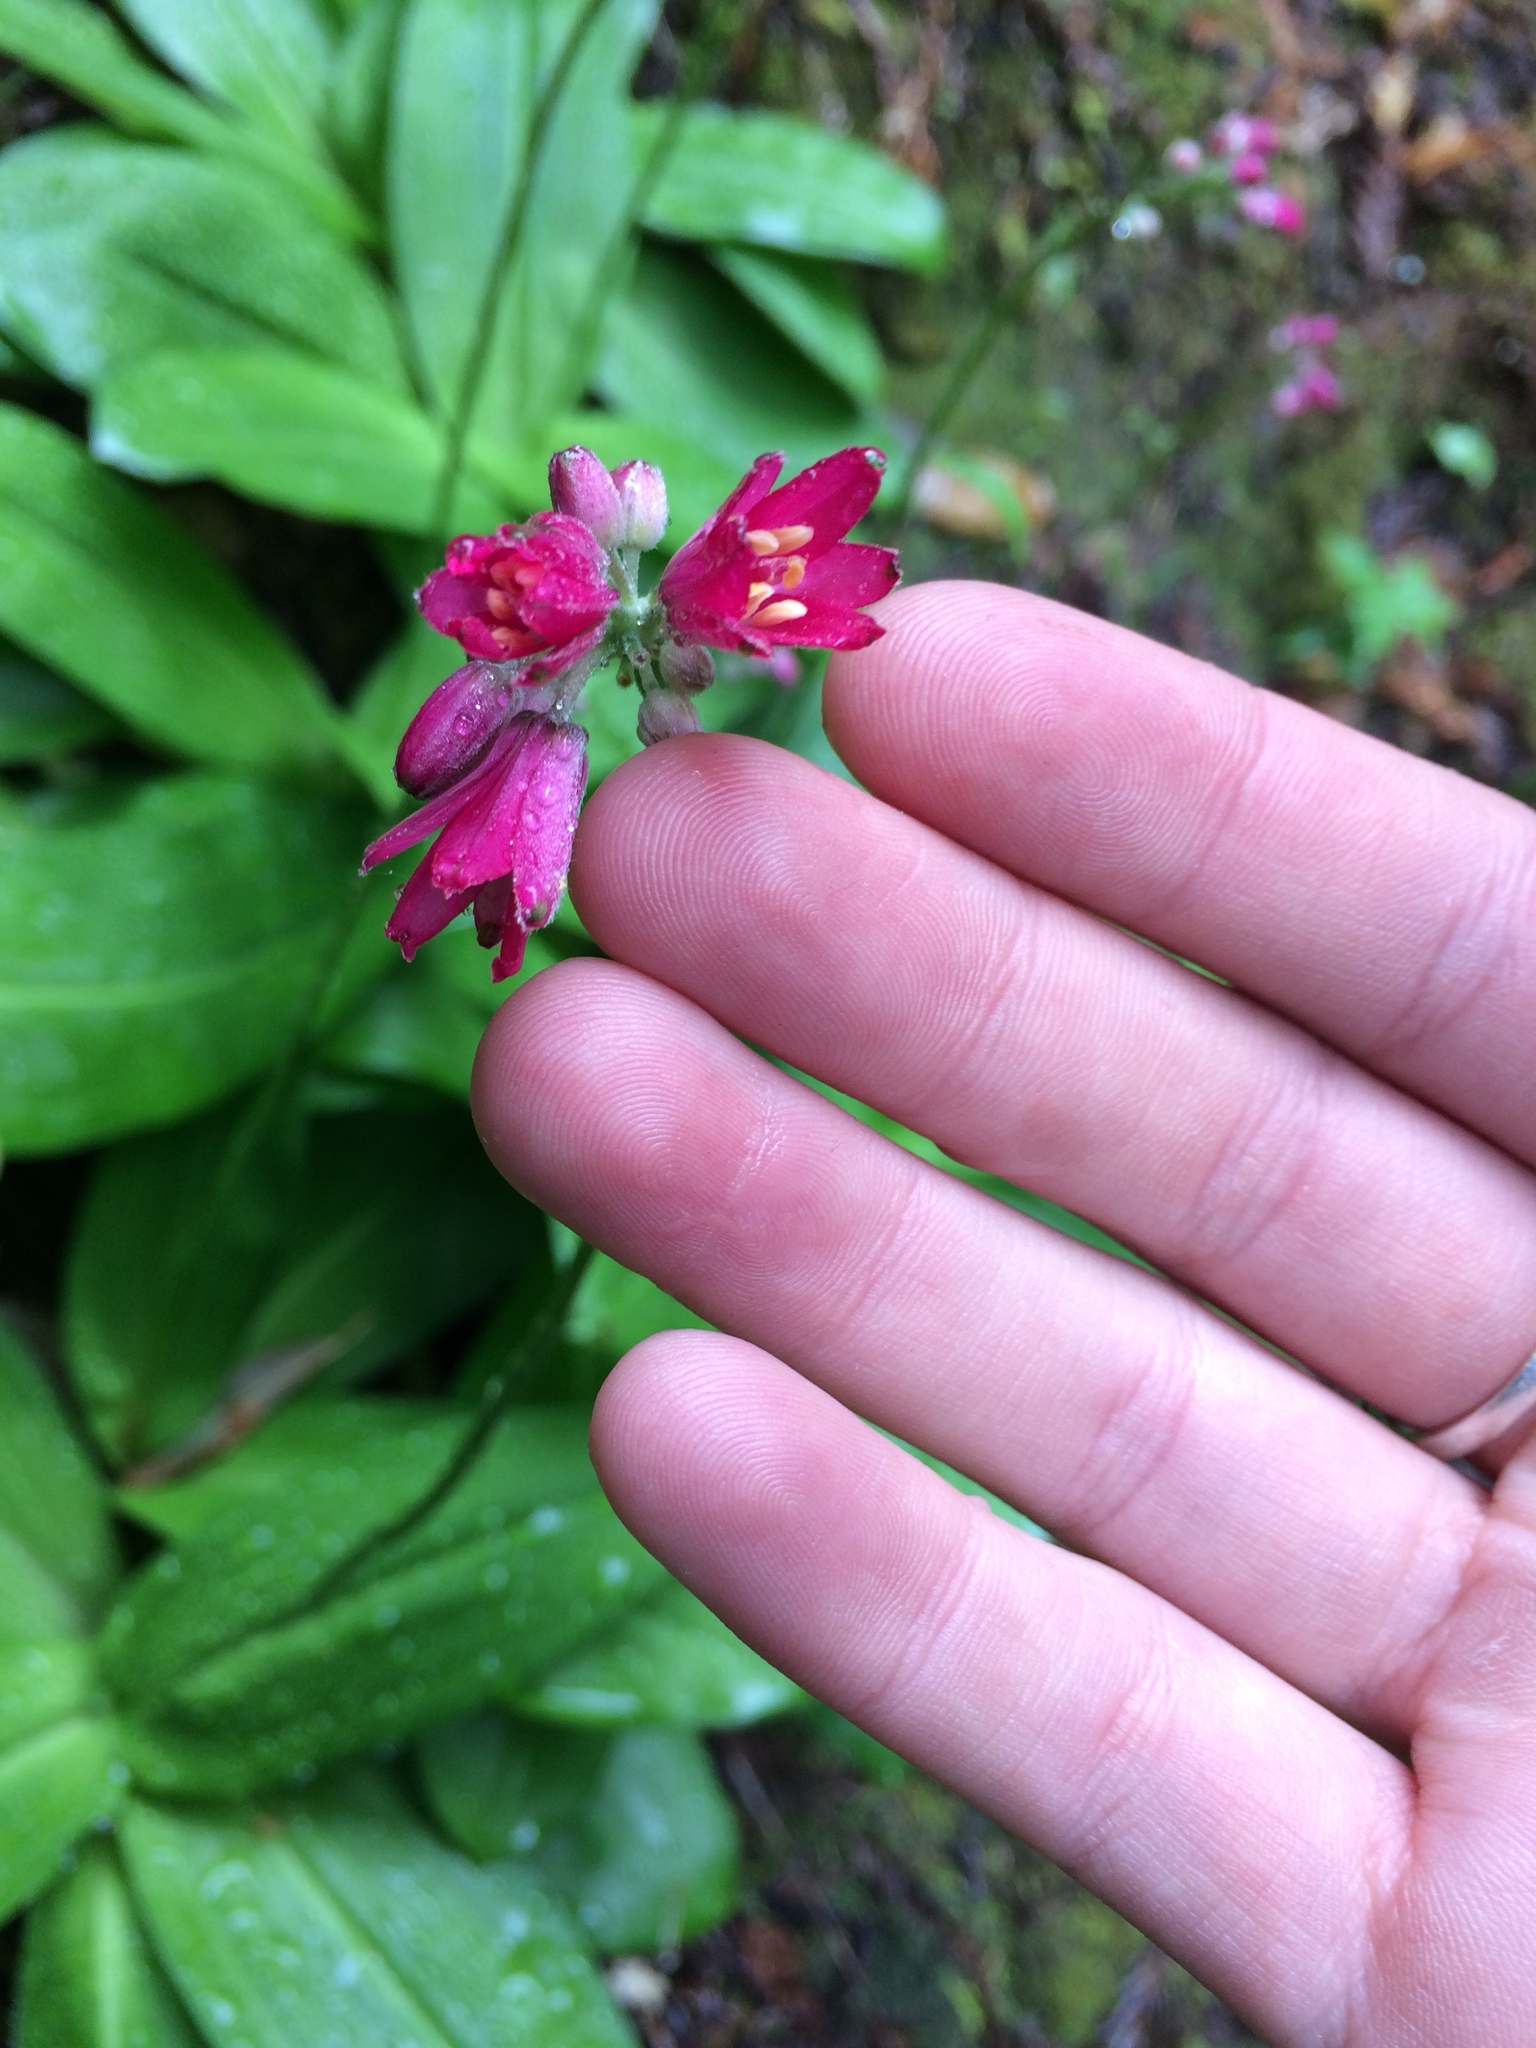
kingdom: Plantae
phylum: Tracheophyta
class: Liliopsida
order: Liliales
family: Liliaceae
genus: Clintonia
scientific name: Clintonia andrewsiana
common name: Red clintonia
